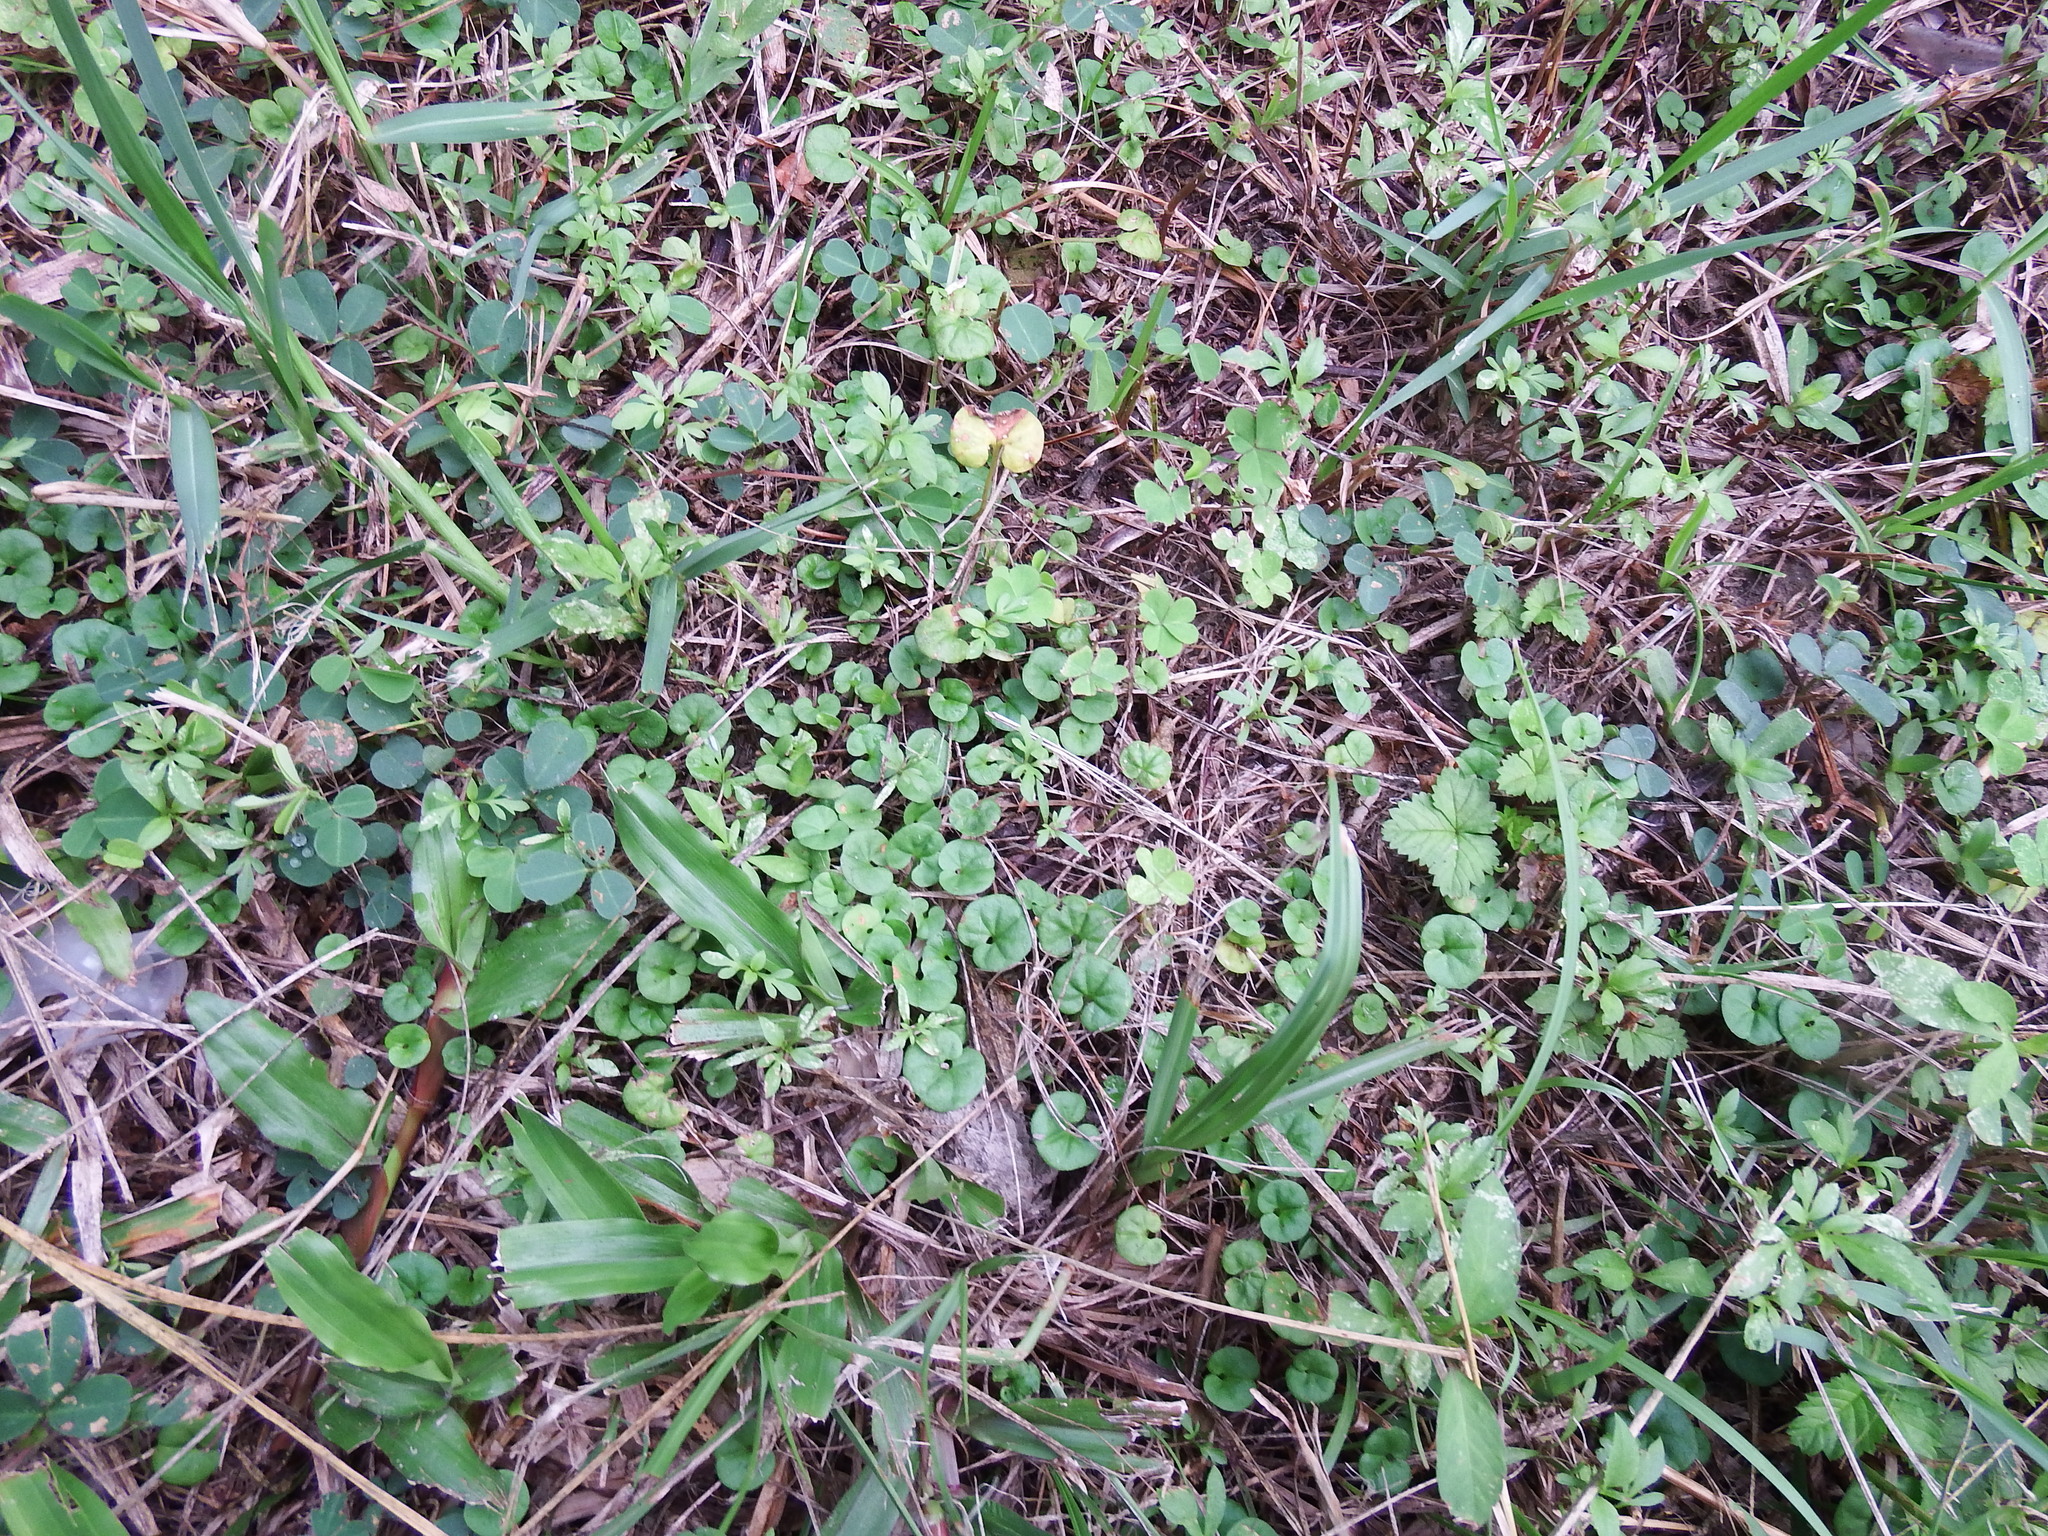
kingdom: Plantae
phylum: Tracheophyta
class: Magnoliopsida
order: Solanales
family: Convolvulaceae
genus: Dichondra
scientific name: Dichondra micrantha
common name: Kidneyweed
